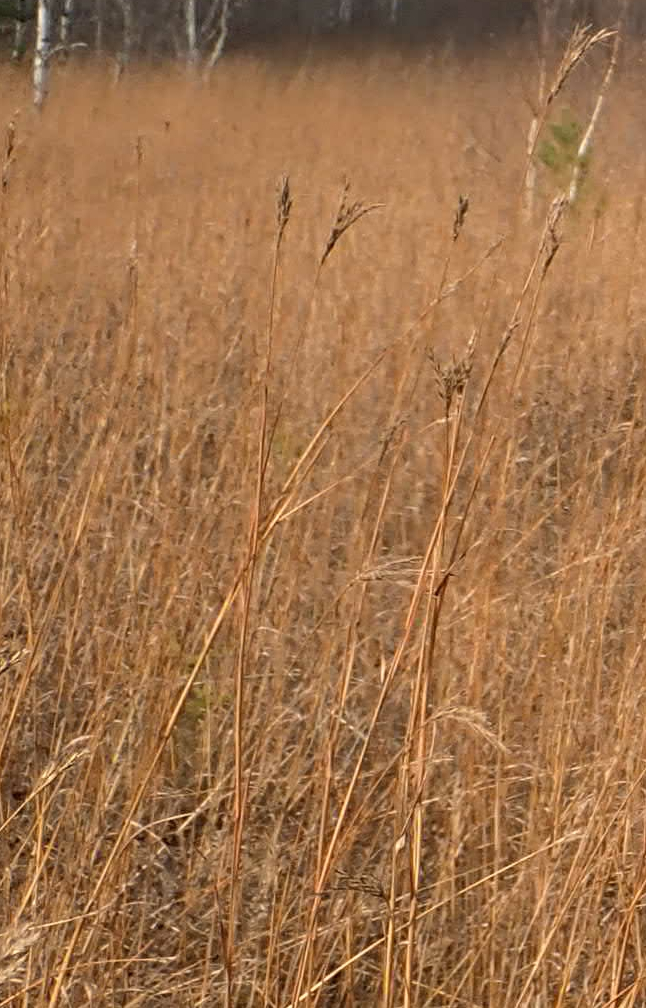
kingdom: Plantae
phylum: Tracheophyta
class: Liliopsida
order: Poales
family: Poaceae
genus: Andropogon
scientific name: Andropogon gerardi
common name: Big bluestem
